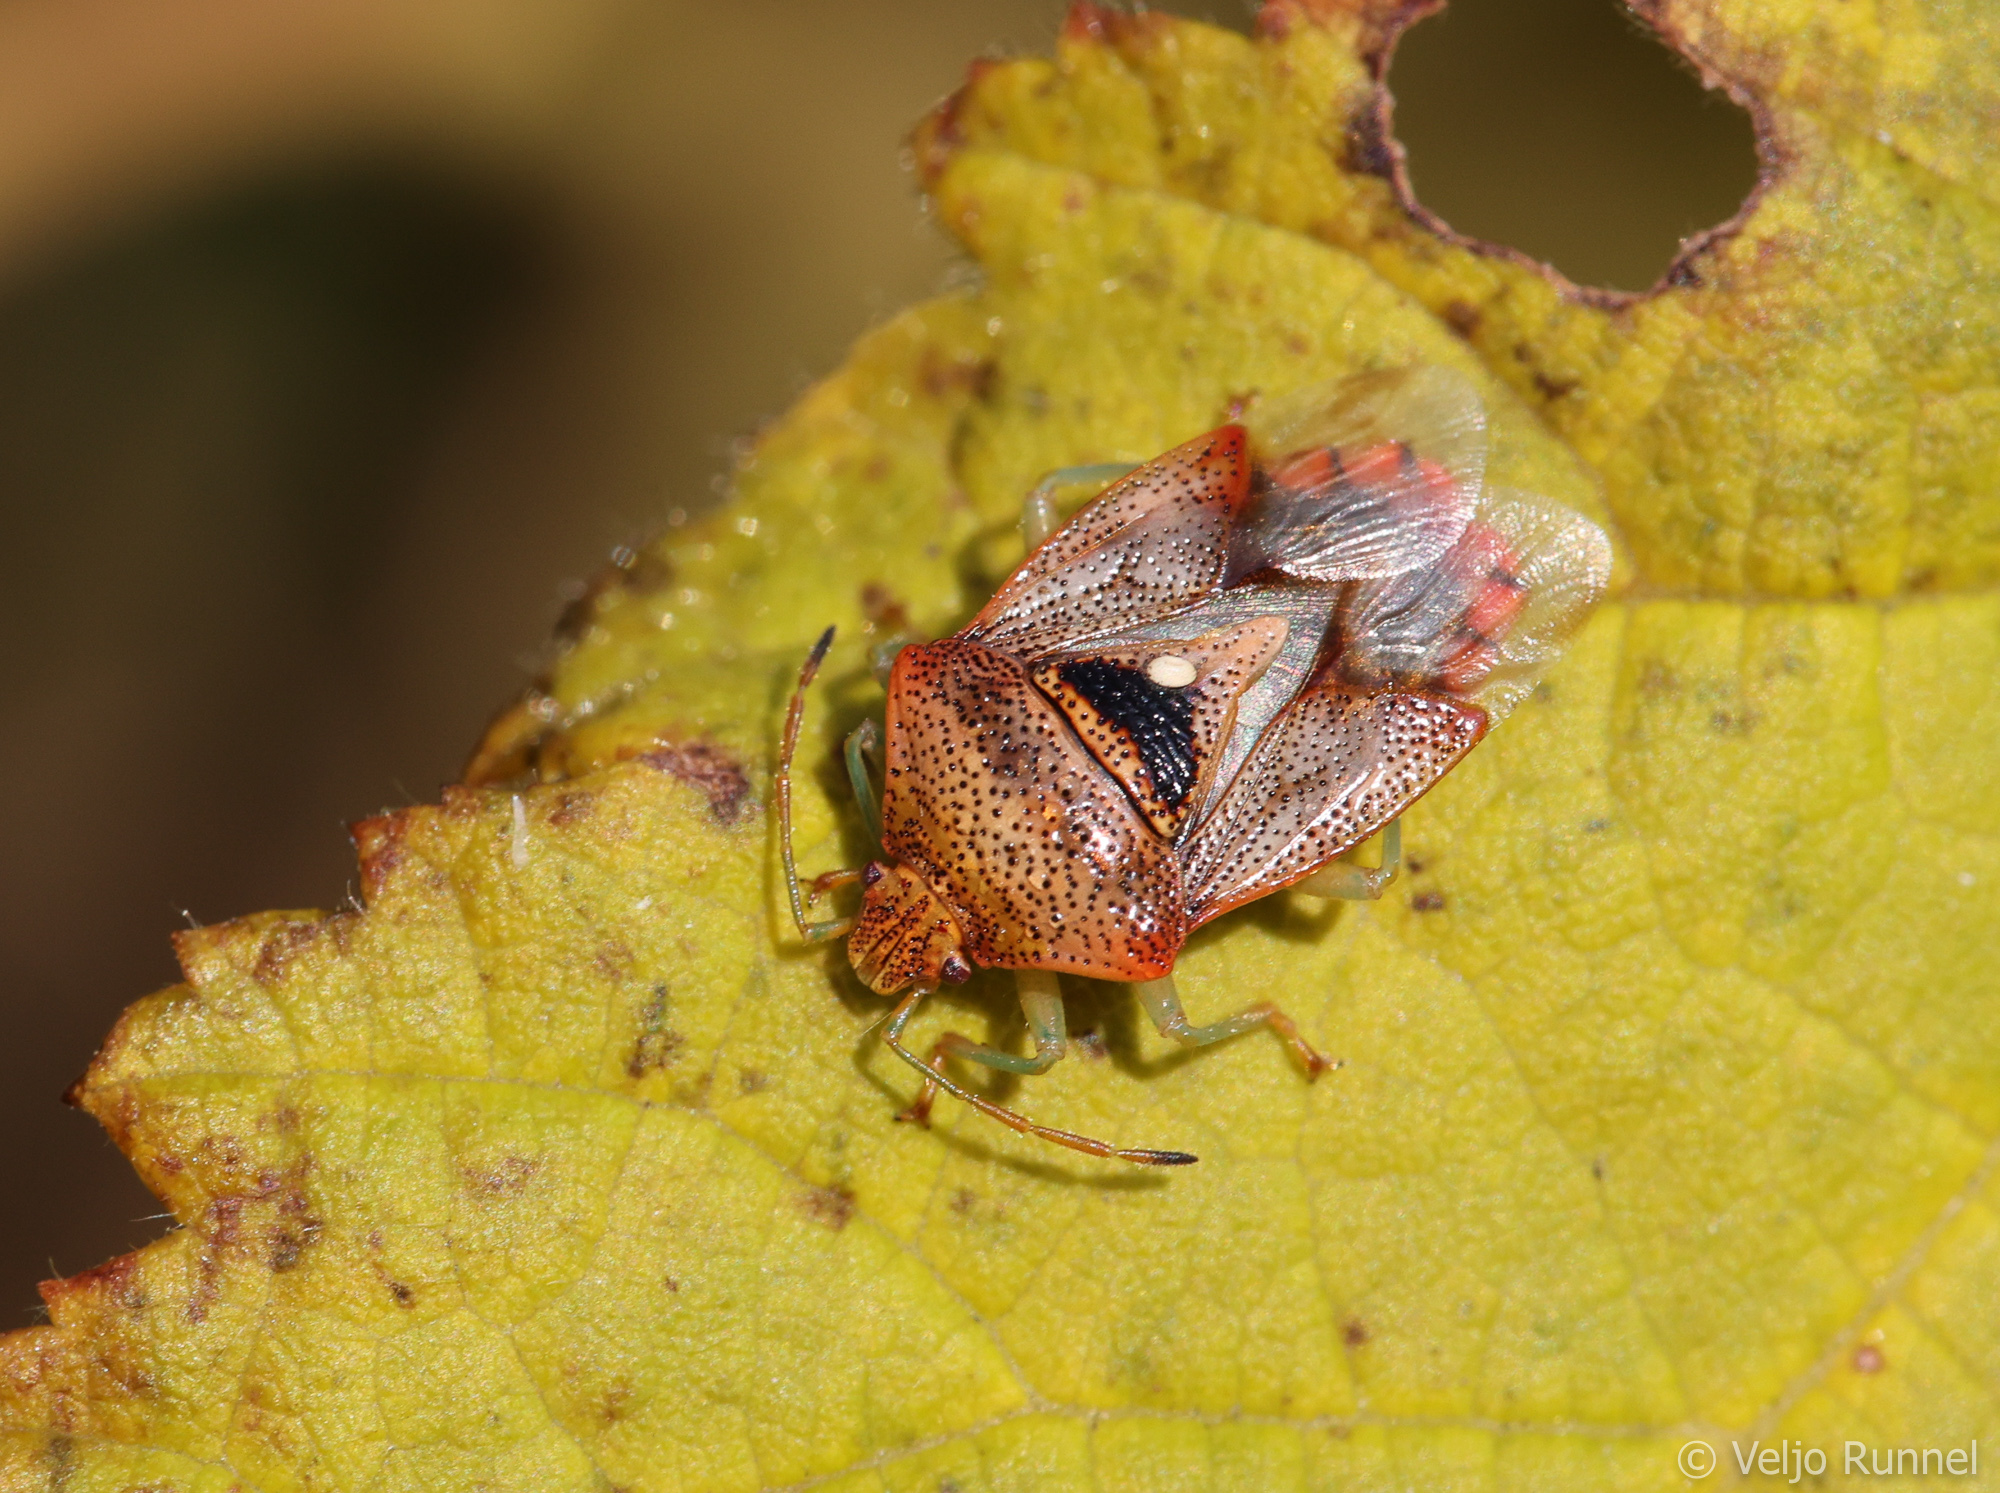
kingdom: Animalia
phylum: Arthropoda
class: Insecta
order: Hemiptera
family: Acanthosomatidae
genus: Elasmucha
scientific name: Elasmucha grisea
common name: Parent bug
